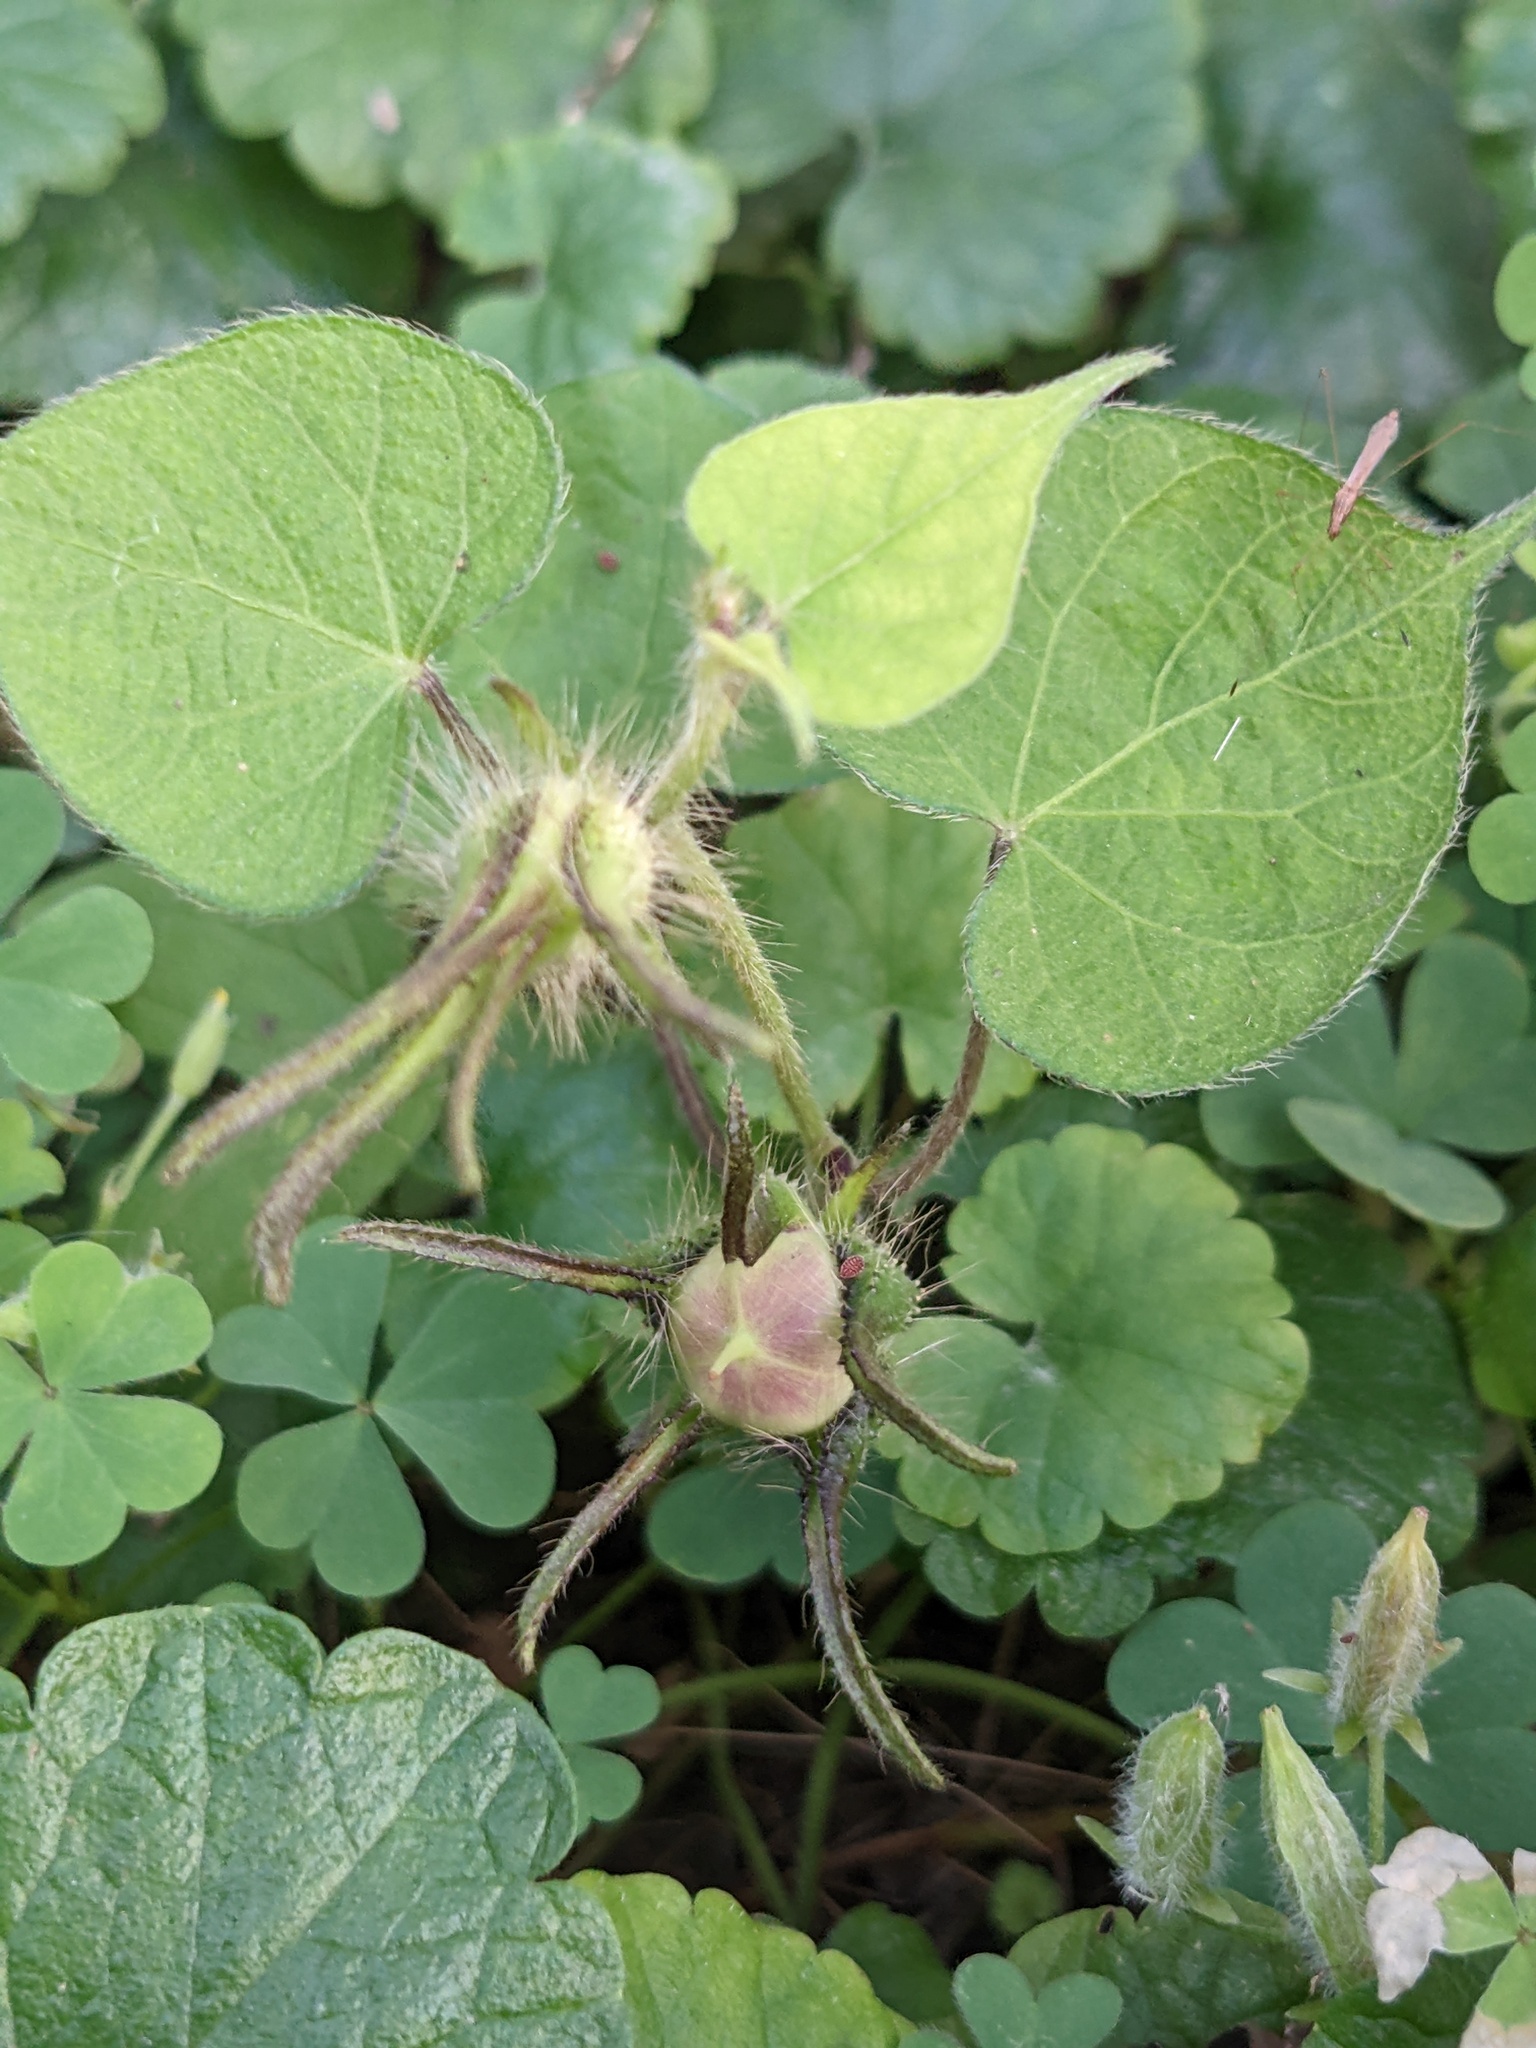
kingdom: Plantae
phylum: Tracheophyta
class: Magnoliopsida
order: Solanales
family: Convolvulaceae
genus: Ipomoea
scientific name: Ipomoea hederacea
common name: Ivy-leaved morning-glory
